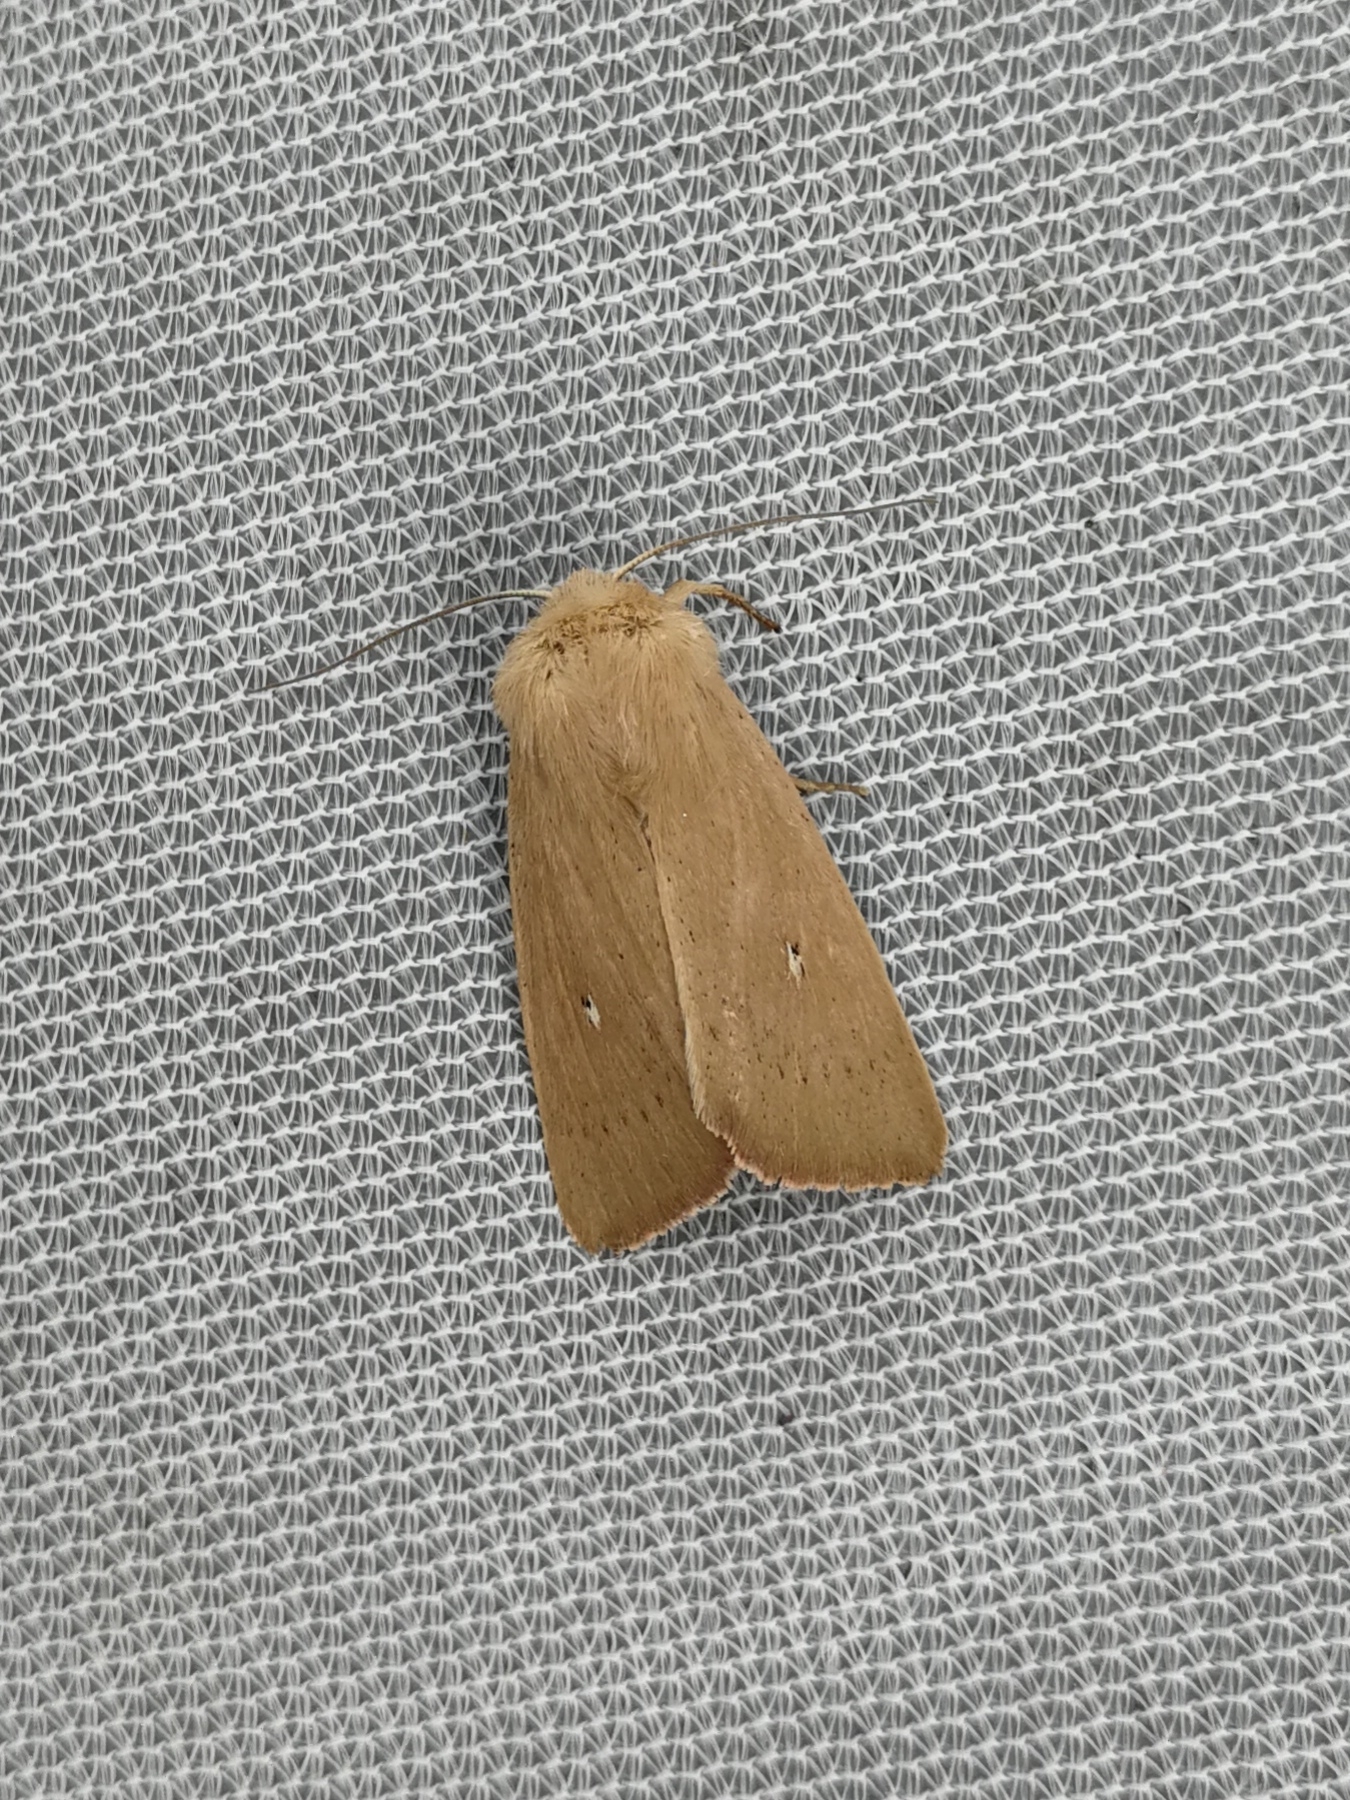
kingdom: Animalia
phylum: Arthropoda
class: Insecta
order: Lepidoptera
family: Noctuidae
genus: Mythimna
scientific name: Mythimna sicula
